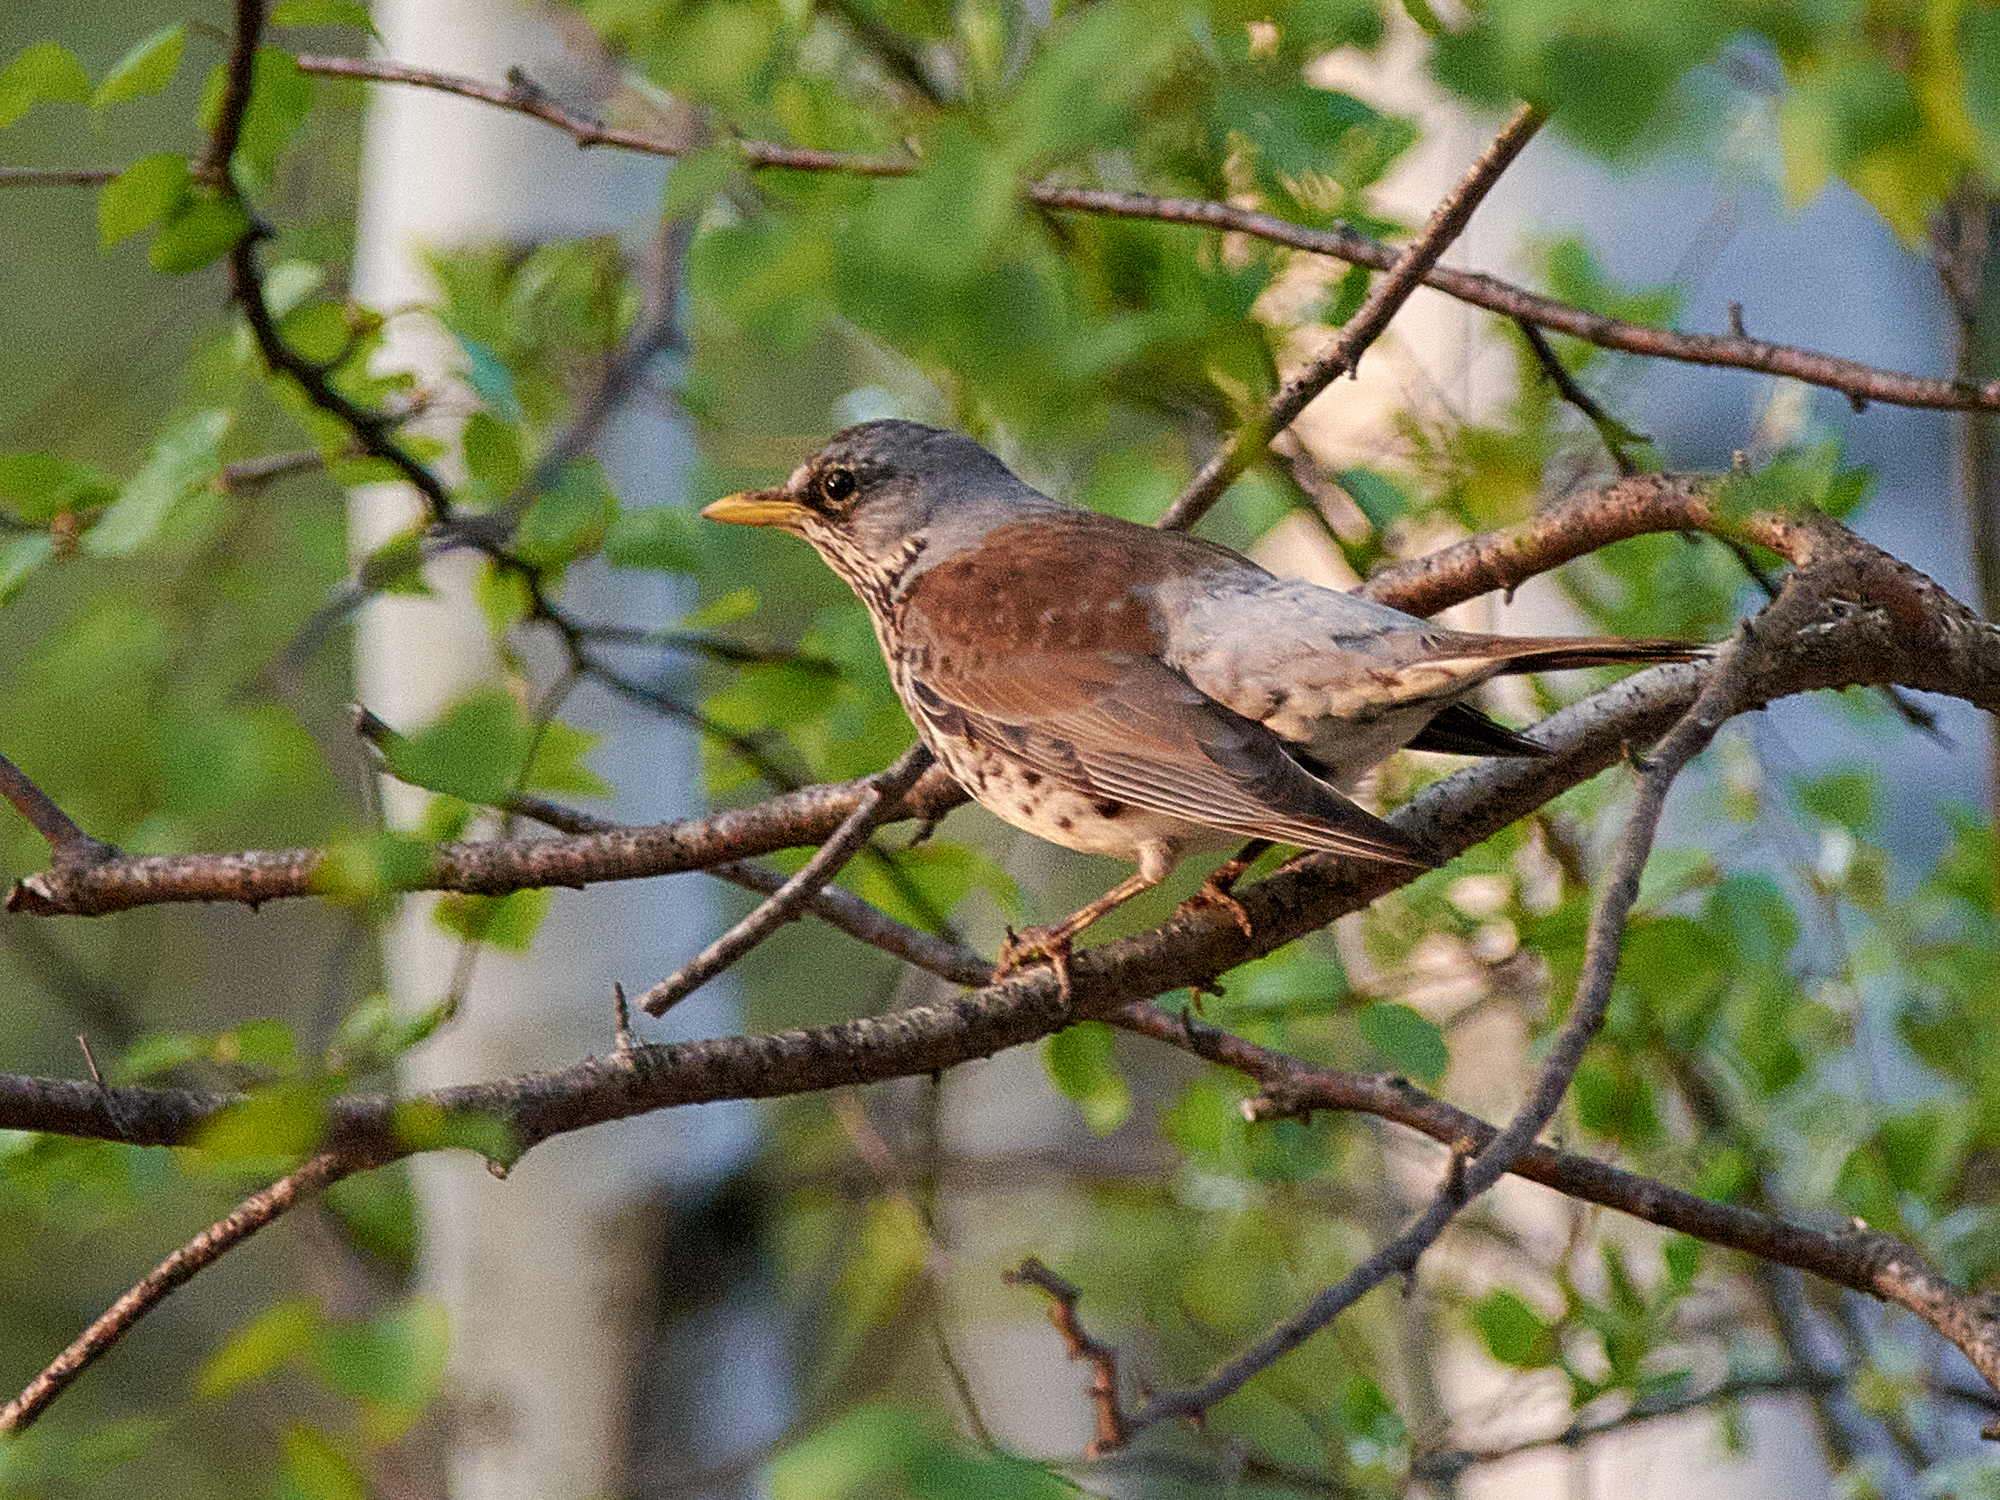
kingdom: Animalia
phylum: Chordata
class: Aves
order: Passeriformes
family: Turdidae
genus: Turdus
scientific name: Turdus pilaris
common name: Fieldfare
